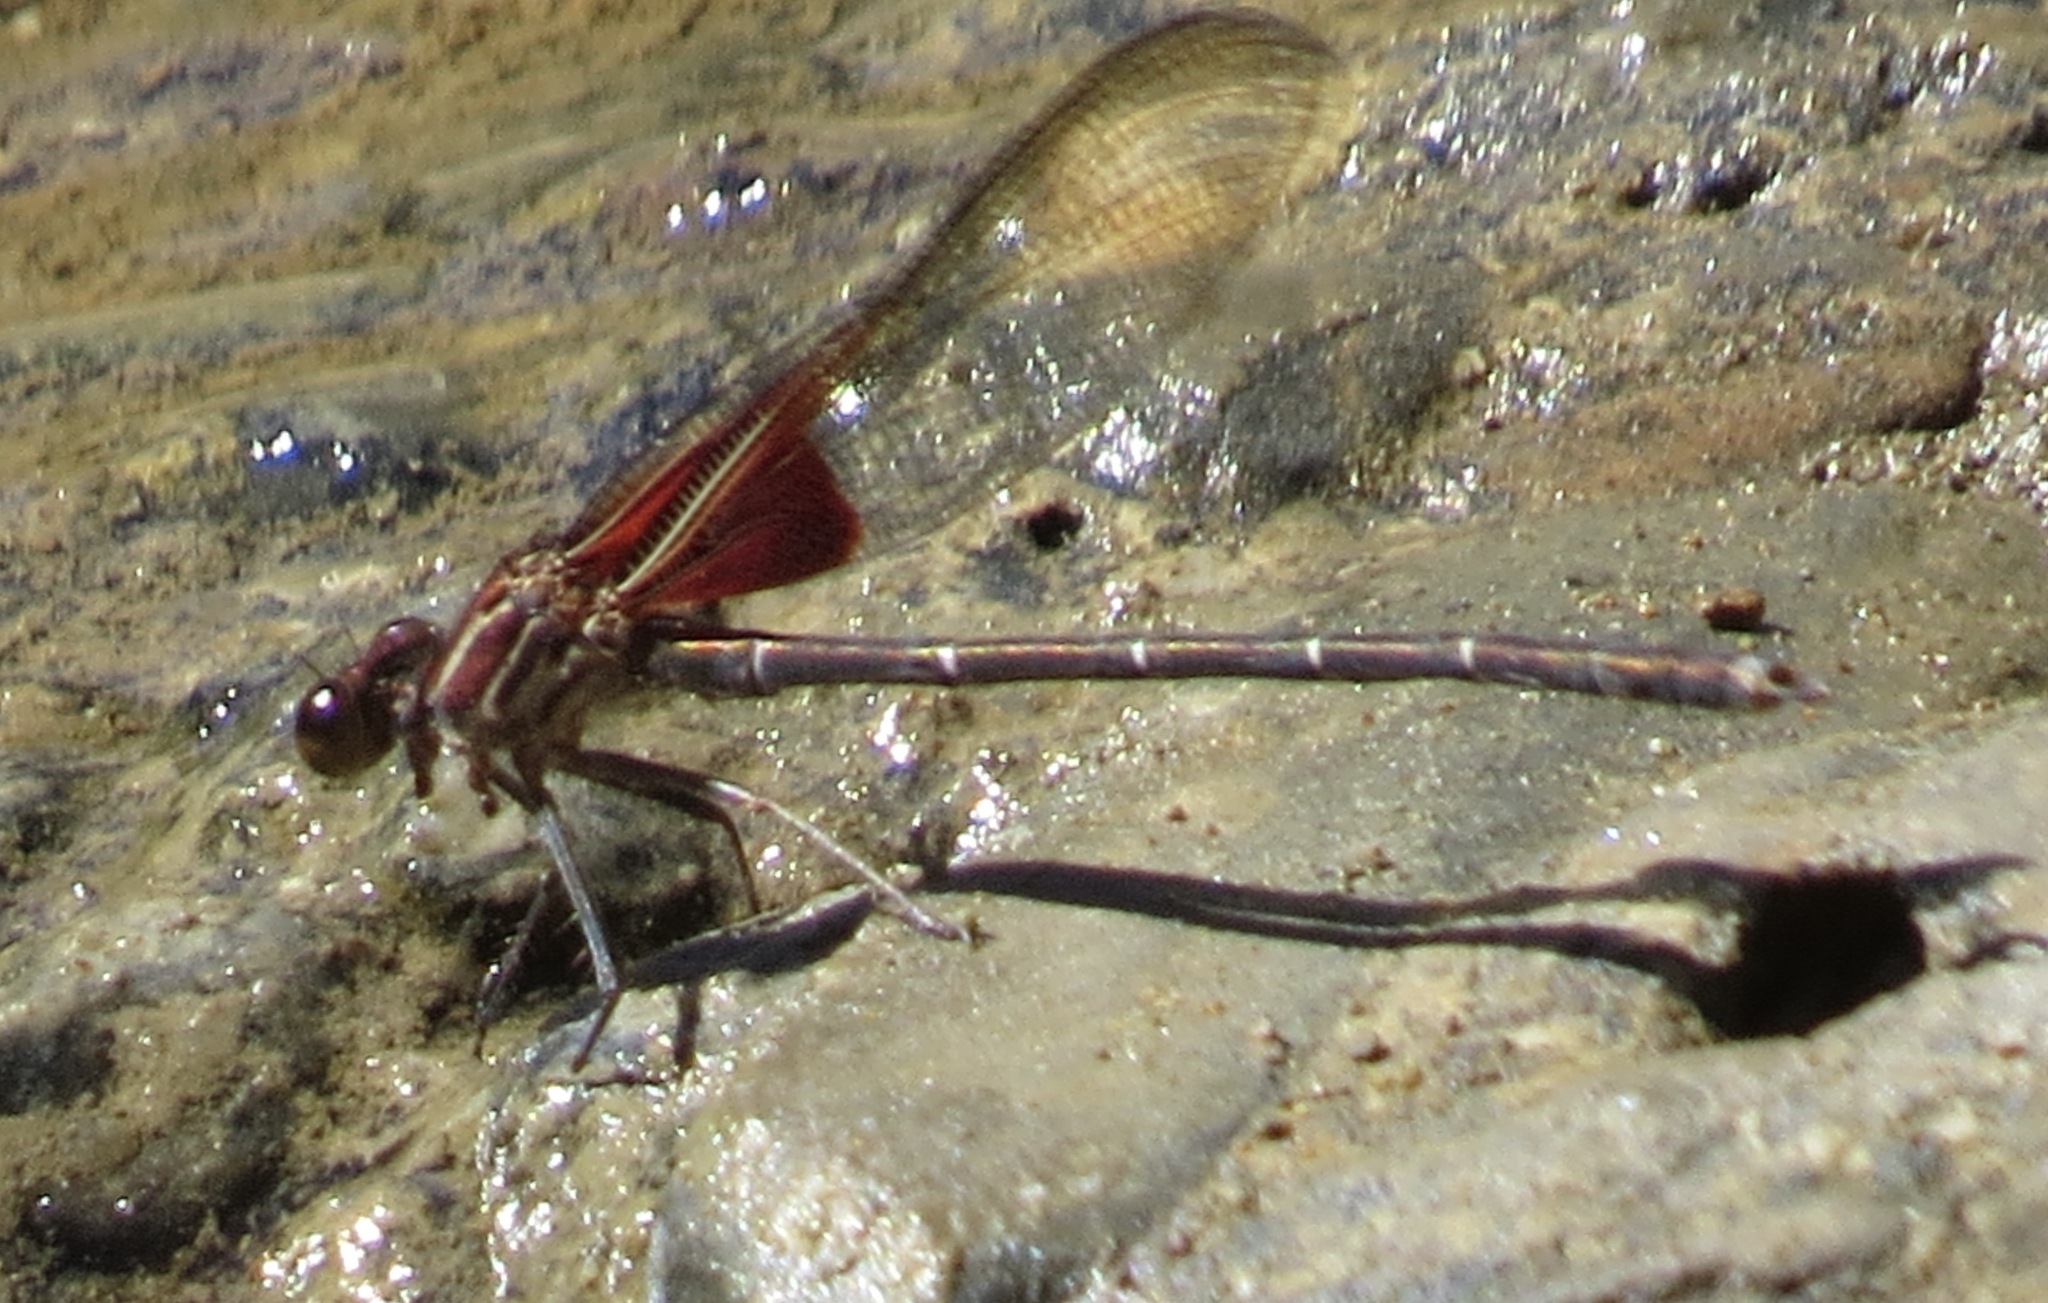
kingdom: Animalia
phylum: Arthropoda
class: Insecta
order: Odonata
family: Calopterygidae
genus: Hetaerina
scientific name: Hetaerina americana
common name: American rubyspot
